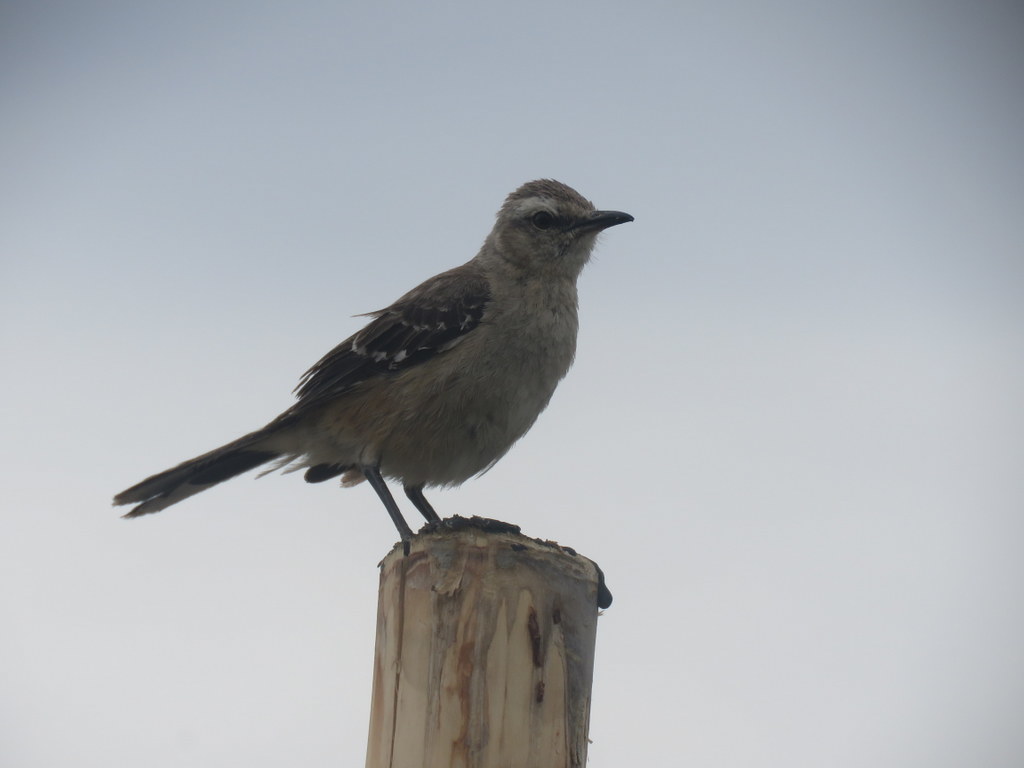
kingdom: Animalia
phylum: Chordata
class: Aves
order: Passeriformes
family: Mimidae
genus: Mimus
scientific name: Mimus patagonicus
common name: Patagonian mockingbird
